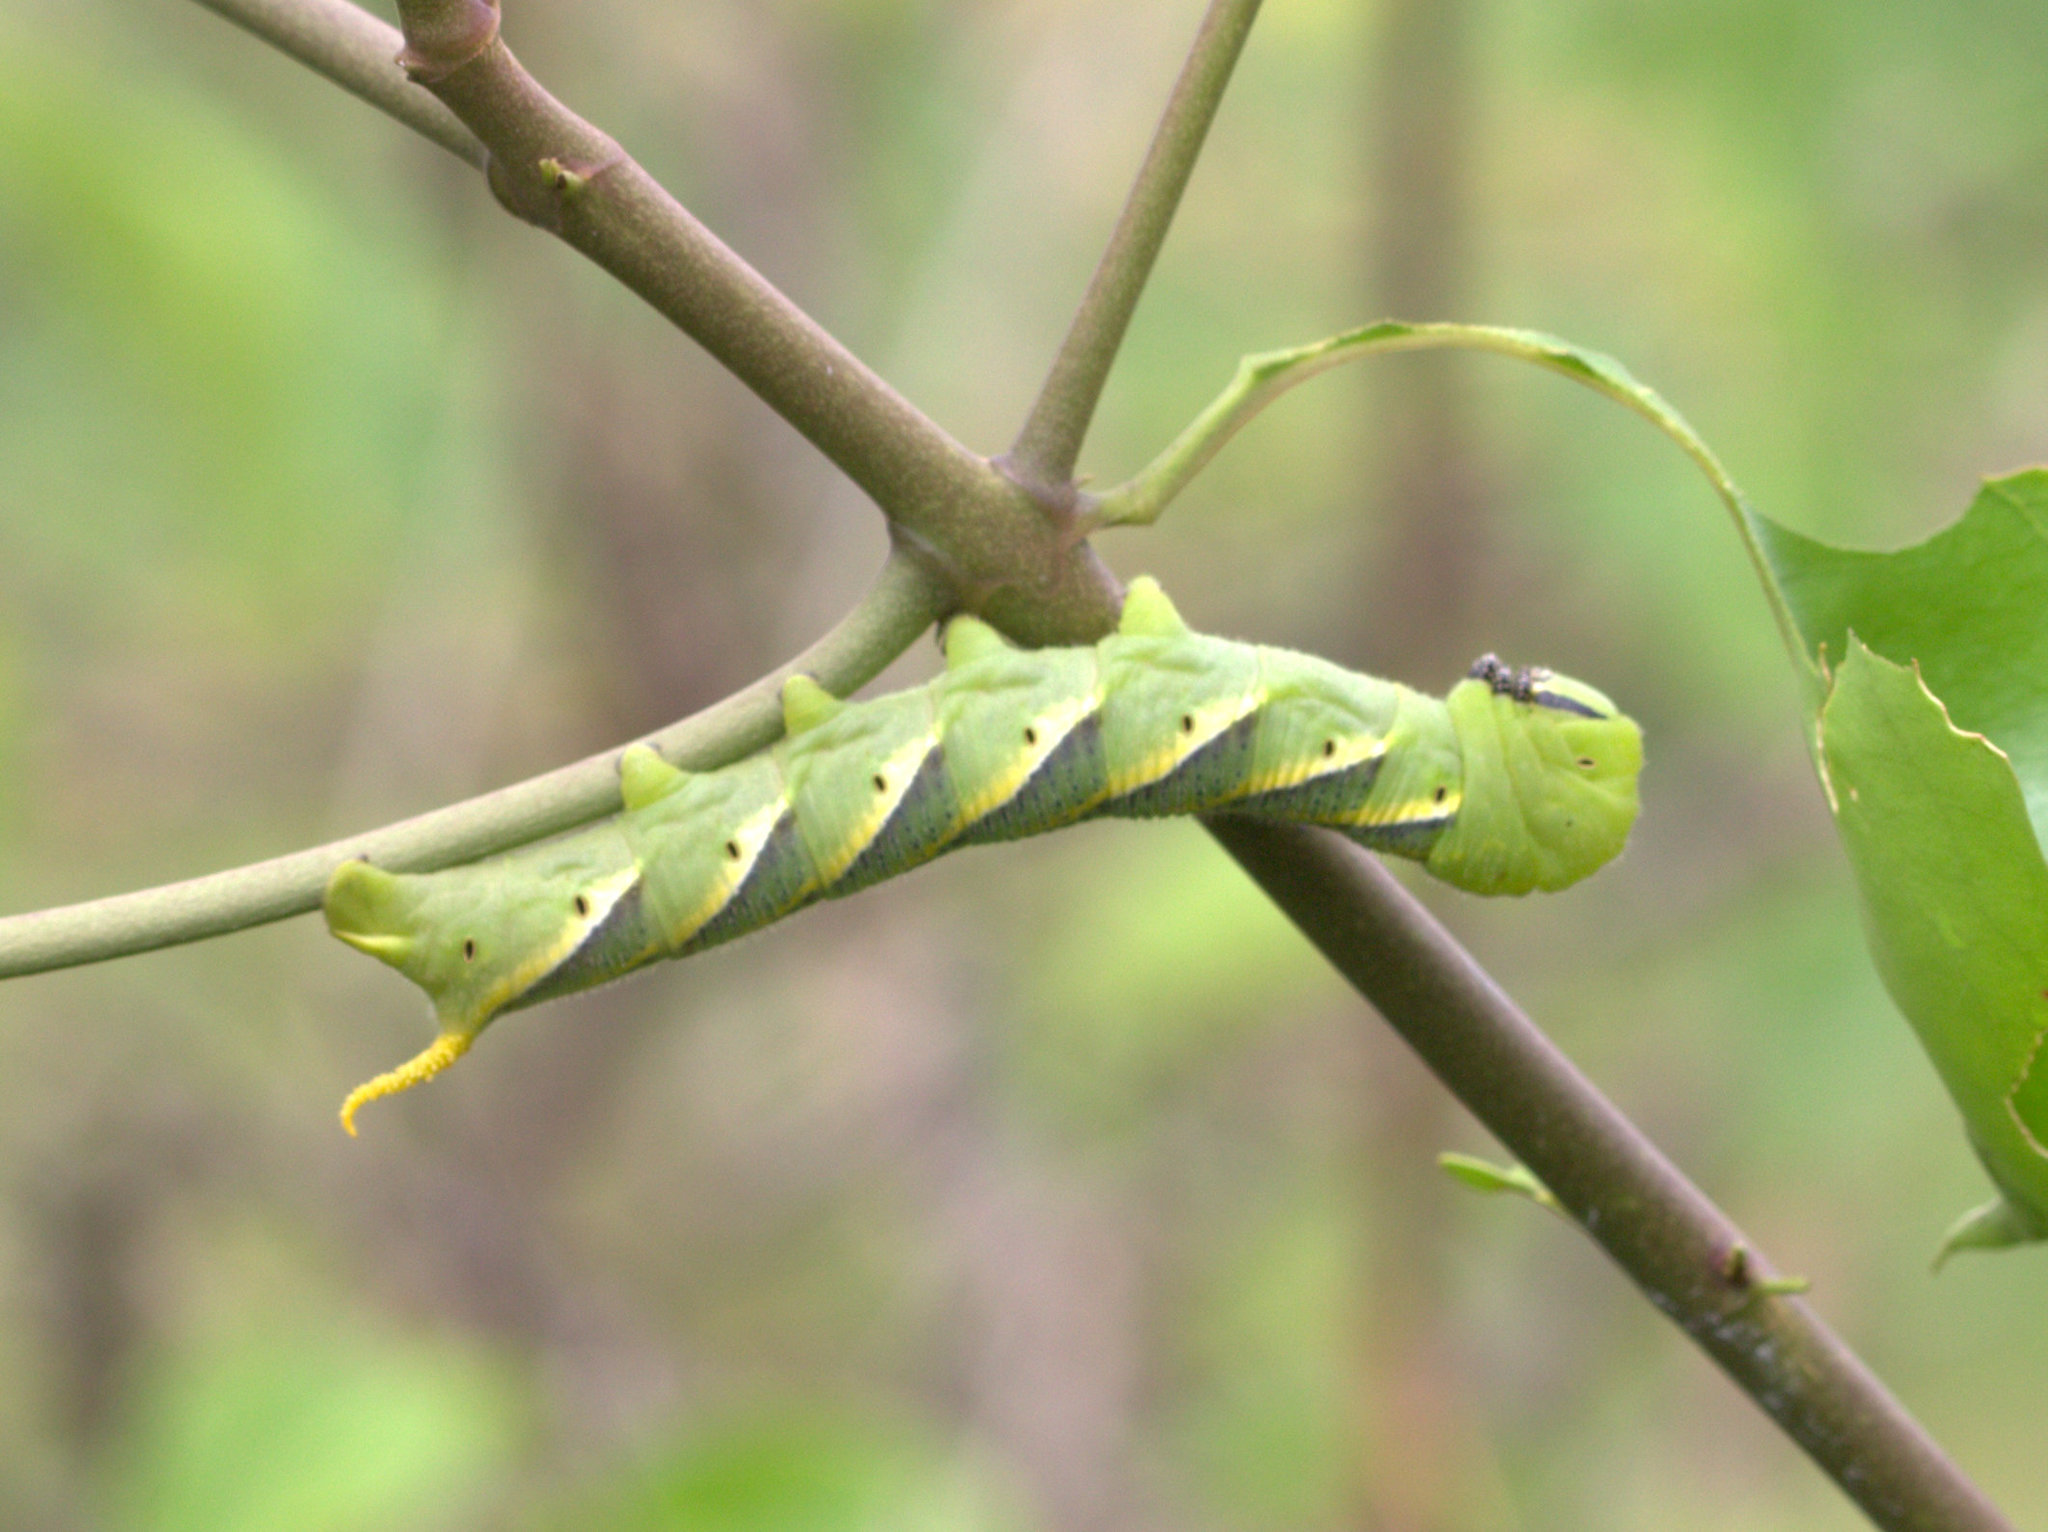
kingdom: Animalia
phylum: Arthropoda
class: Insecta
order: Lepidoptera
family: Sphingidae
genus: Acherontia
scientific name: Acherontia styx
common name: Death's-head hawk moth
